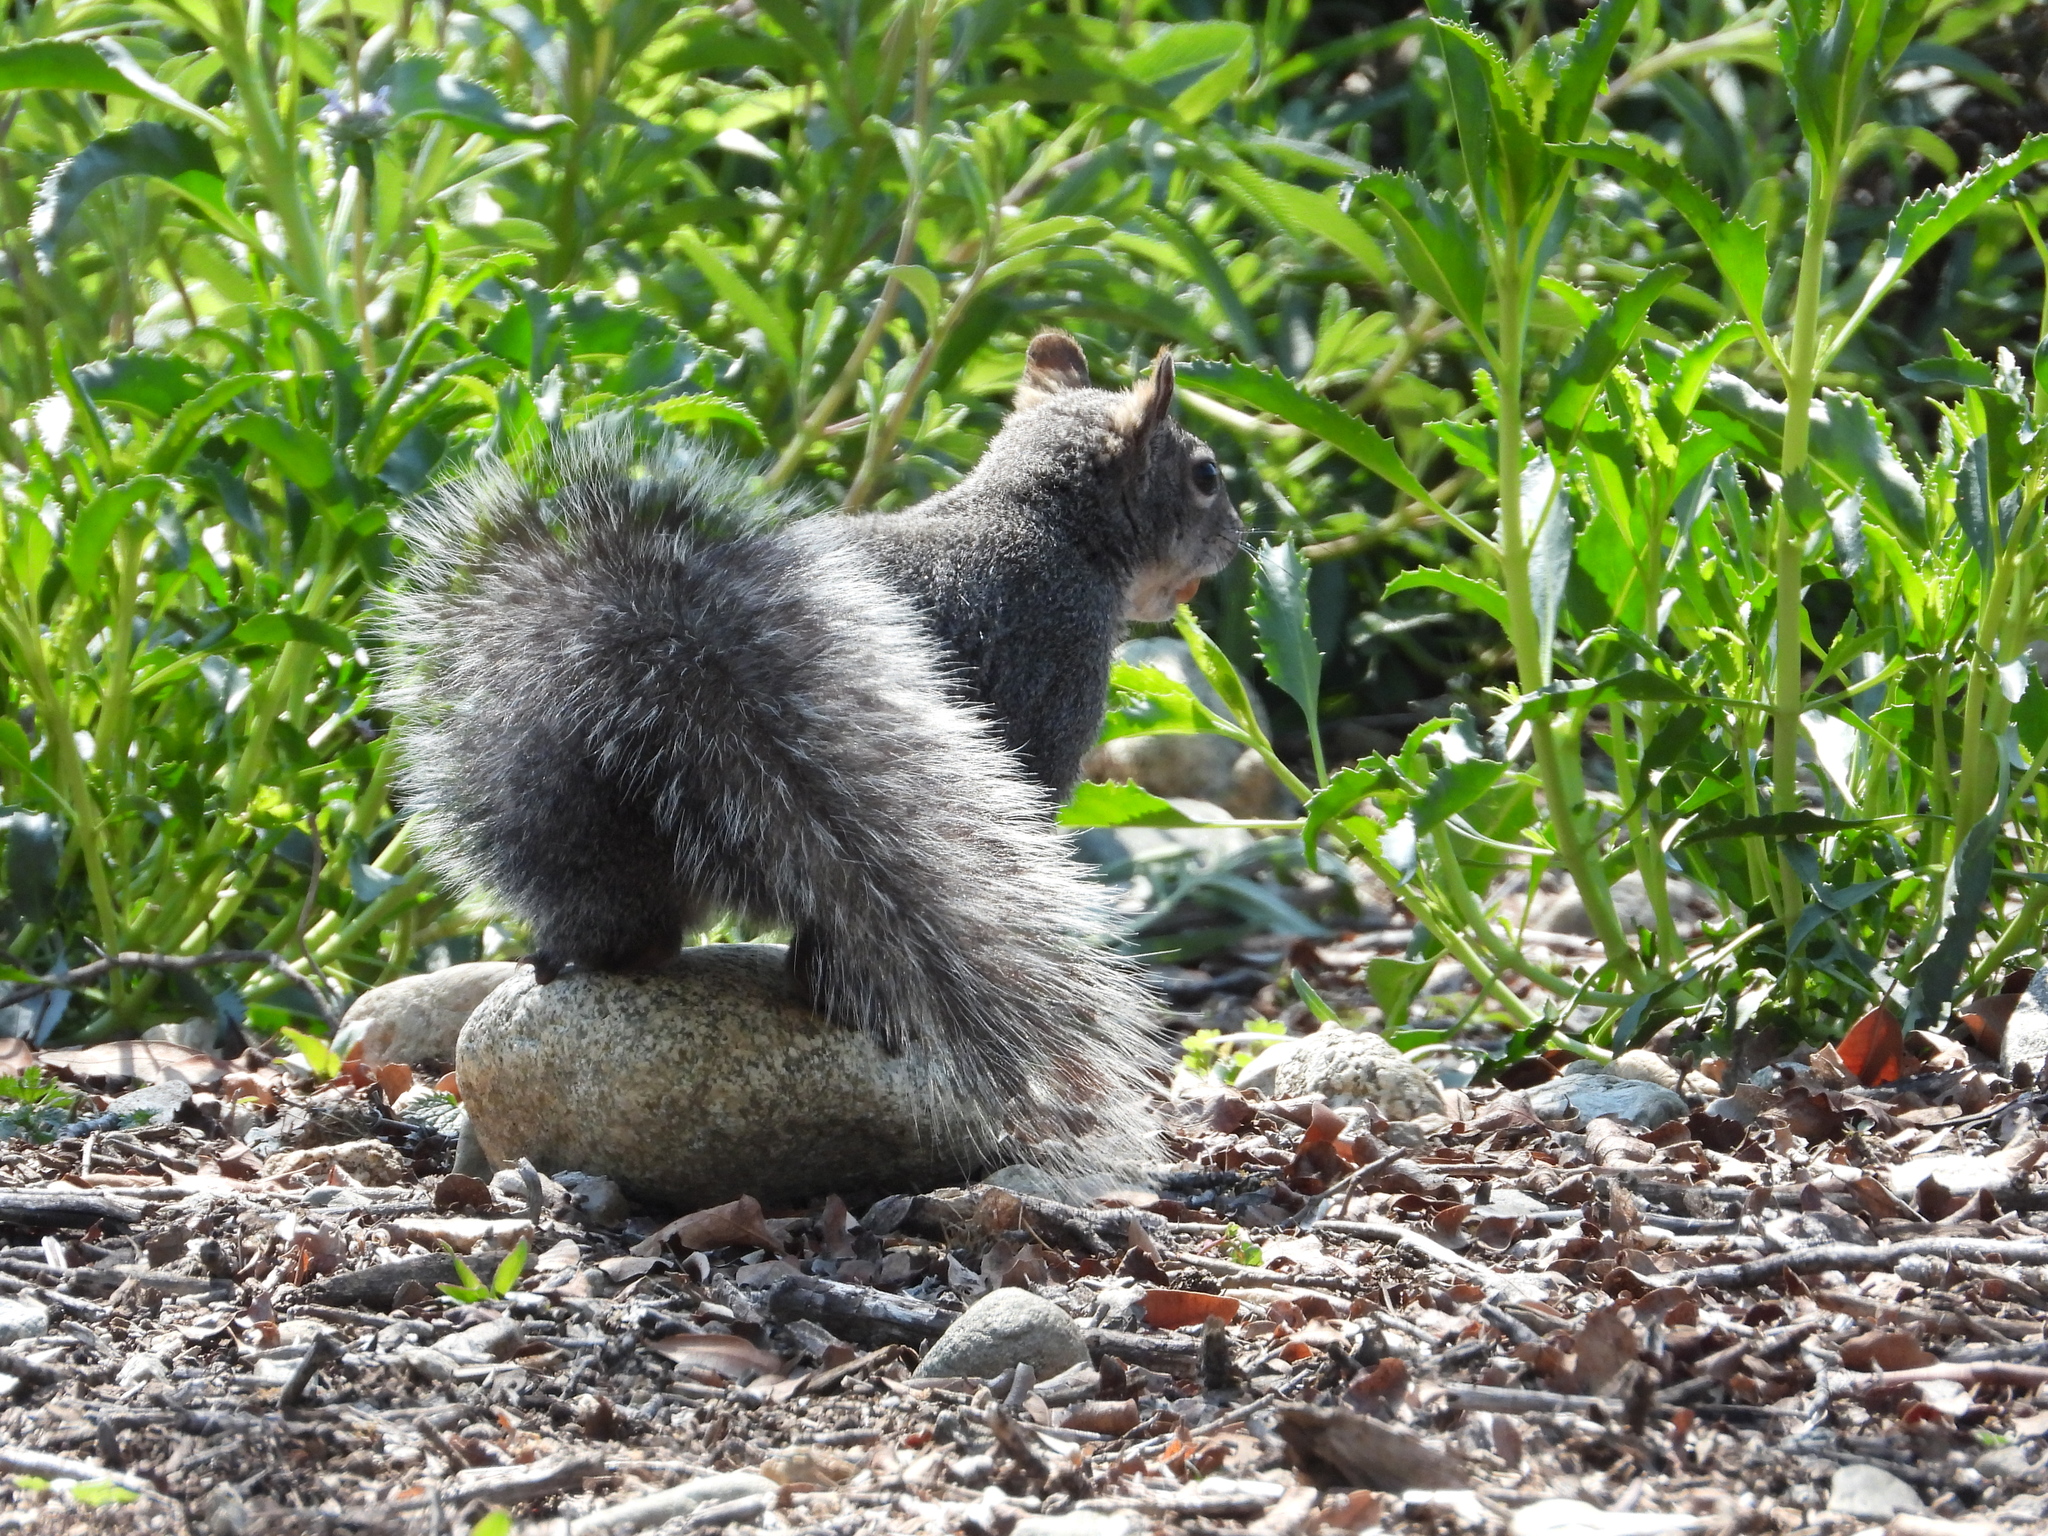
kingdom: Animalia
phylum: Chordata
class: Mammalia
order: Rodentia
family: Sciuridae
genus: Sciurus
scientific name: Sciurus griseus
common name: Western gray squirrel
